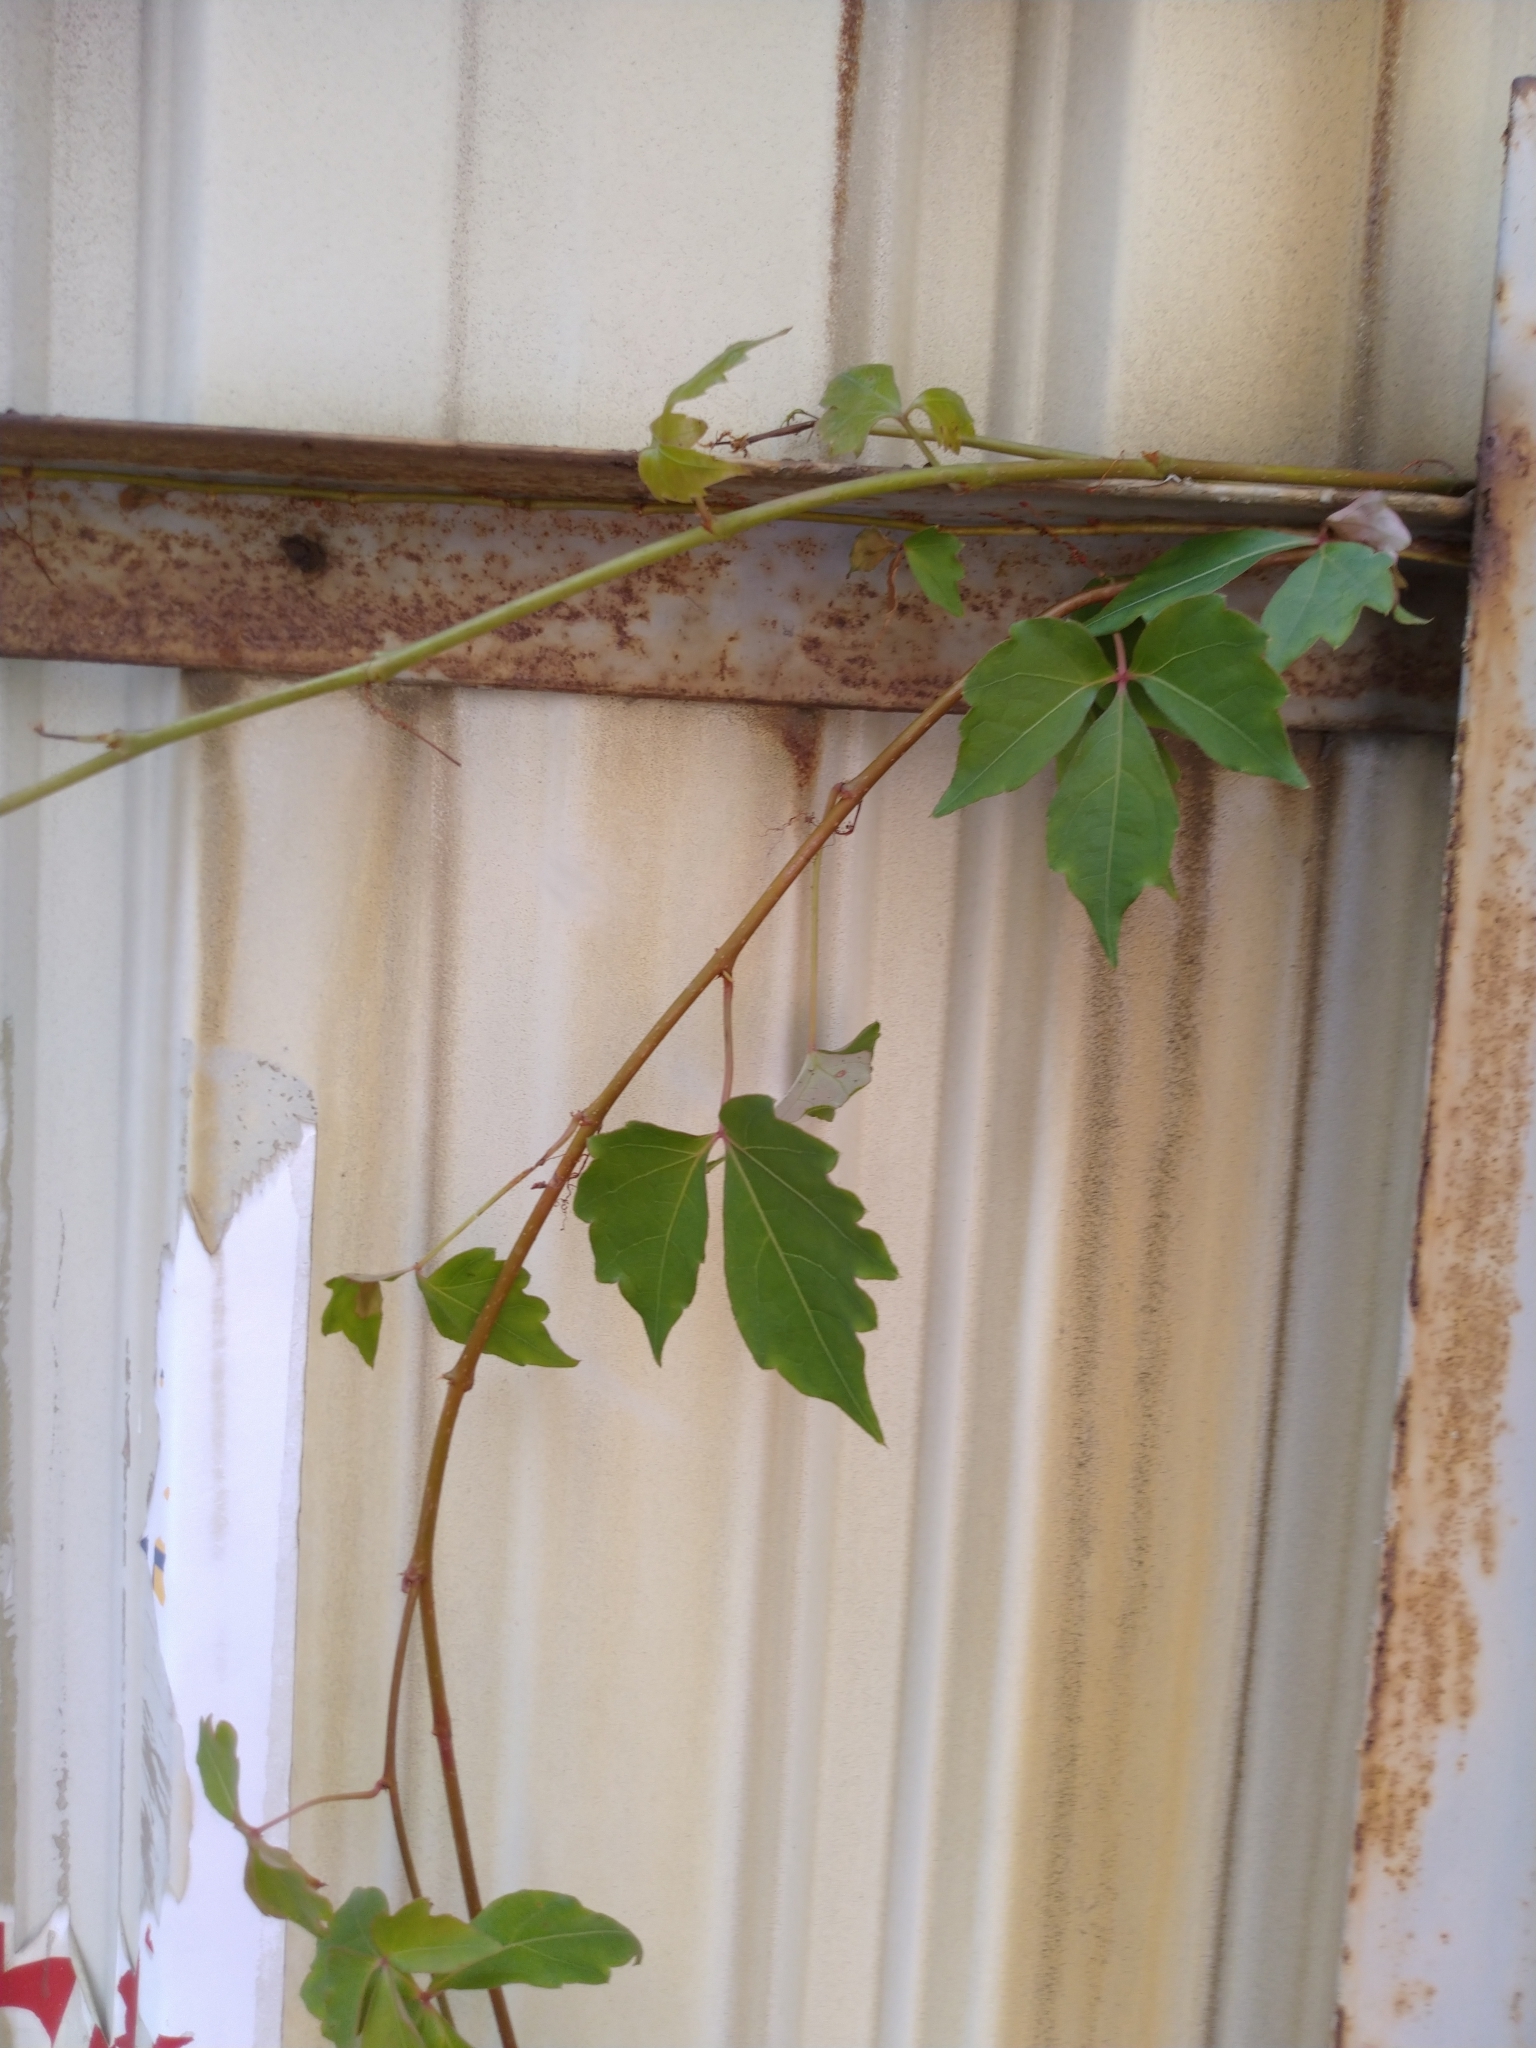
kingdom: Plantae
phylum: Tracheophyta
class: Magnoliopsida
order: Vitales
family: Vitaceae
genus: Parthenocissus
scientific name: Parthenocissus tricuspidata
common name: Boston ivy
